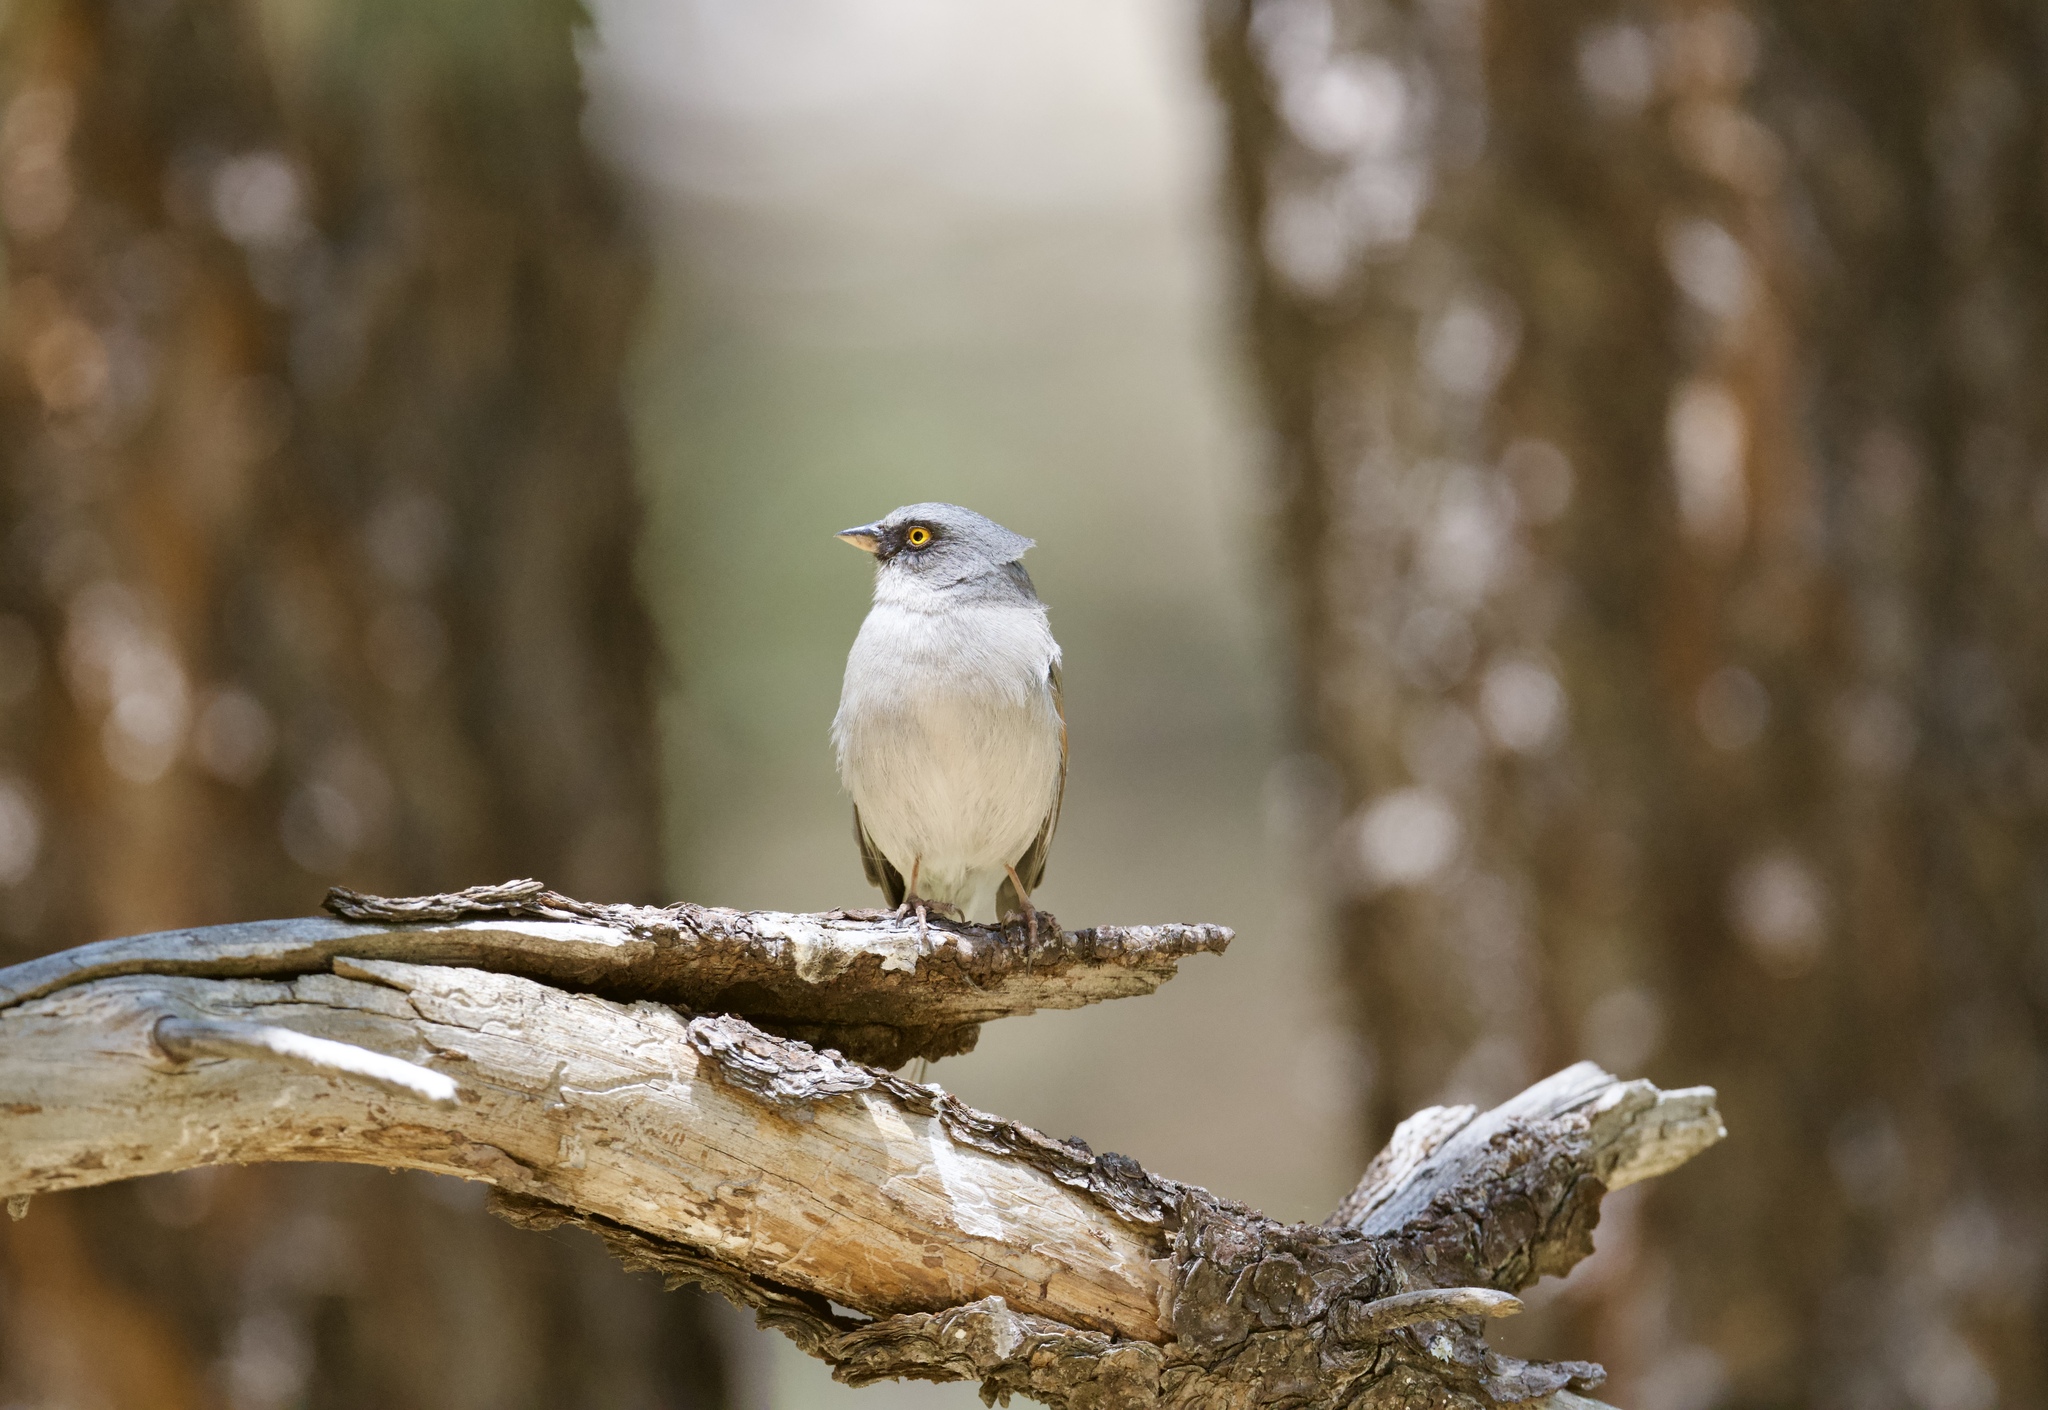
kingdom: Animalia
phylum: Chordata
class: Aves
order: Passeriformes
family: Passerellidae
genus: Junco
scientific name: Junco phaeonotus
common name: Yellow-eyed junco
